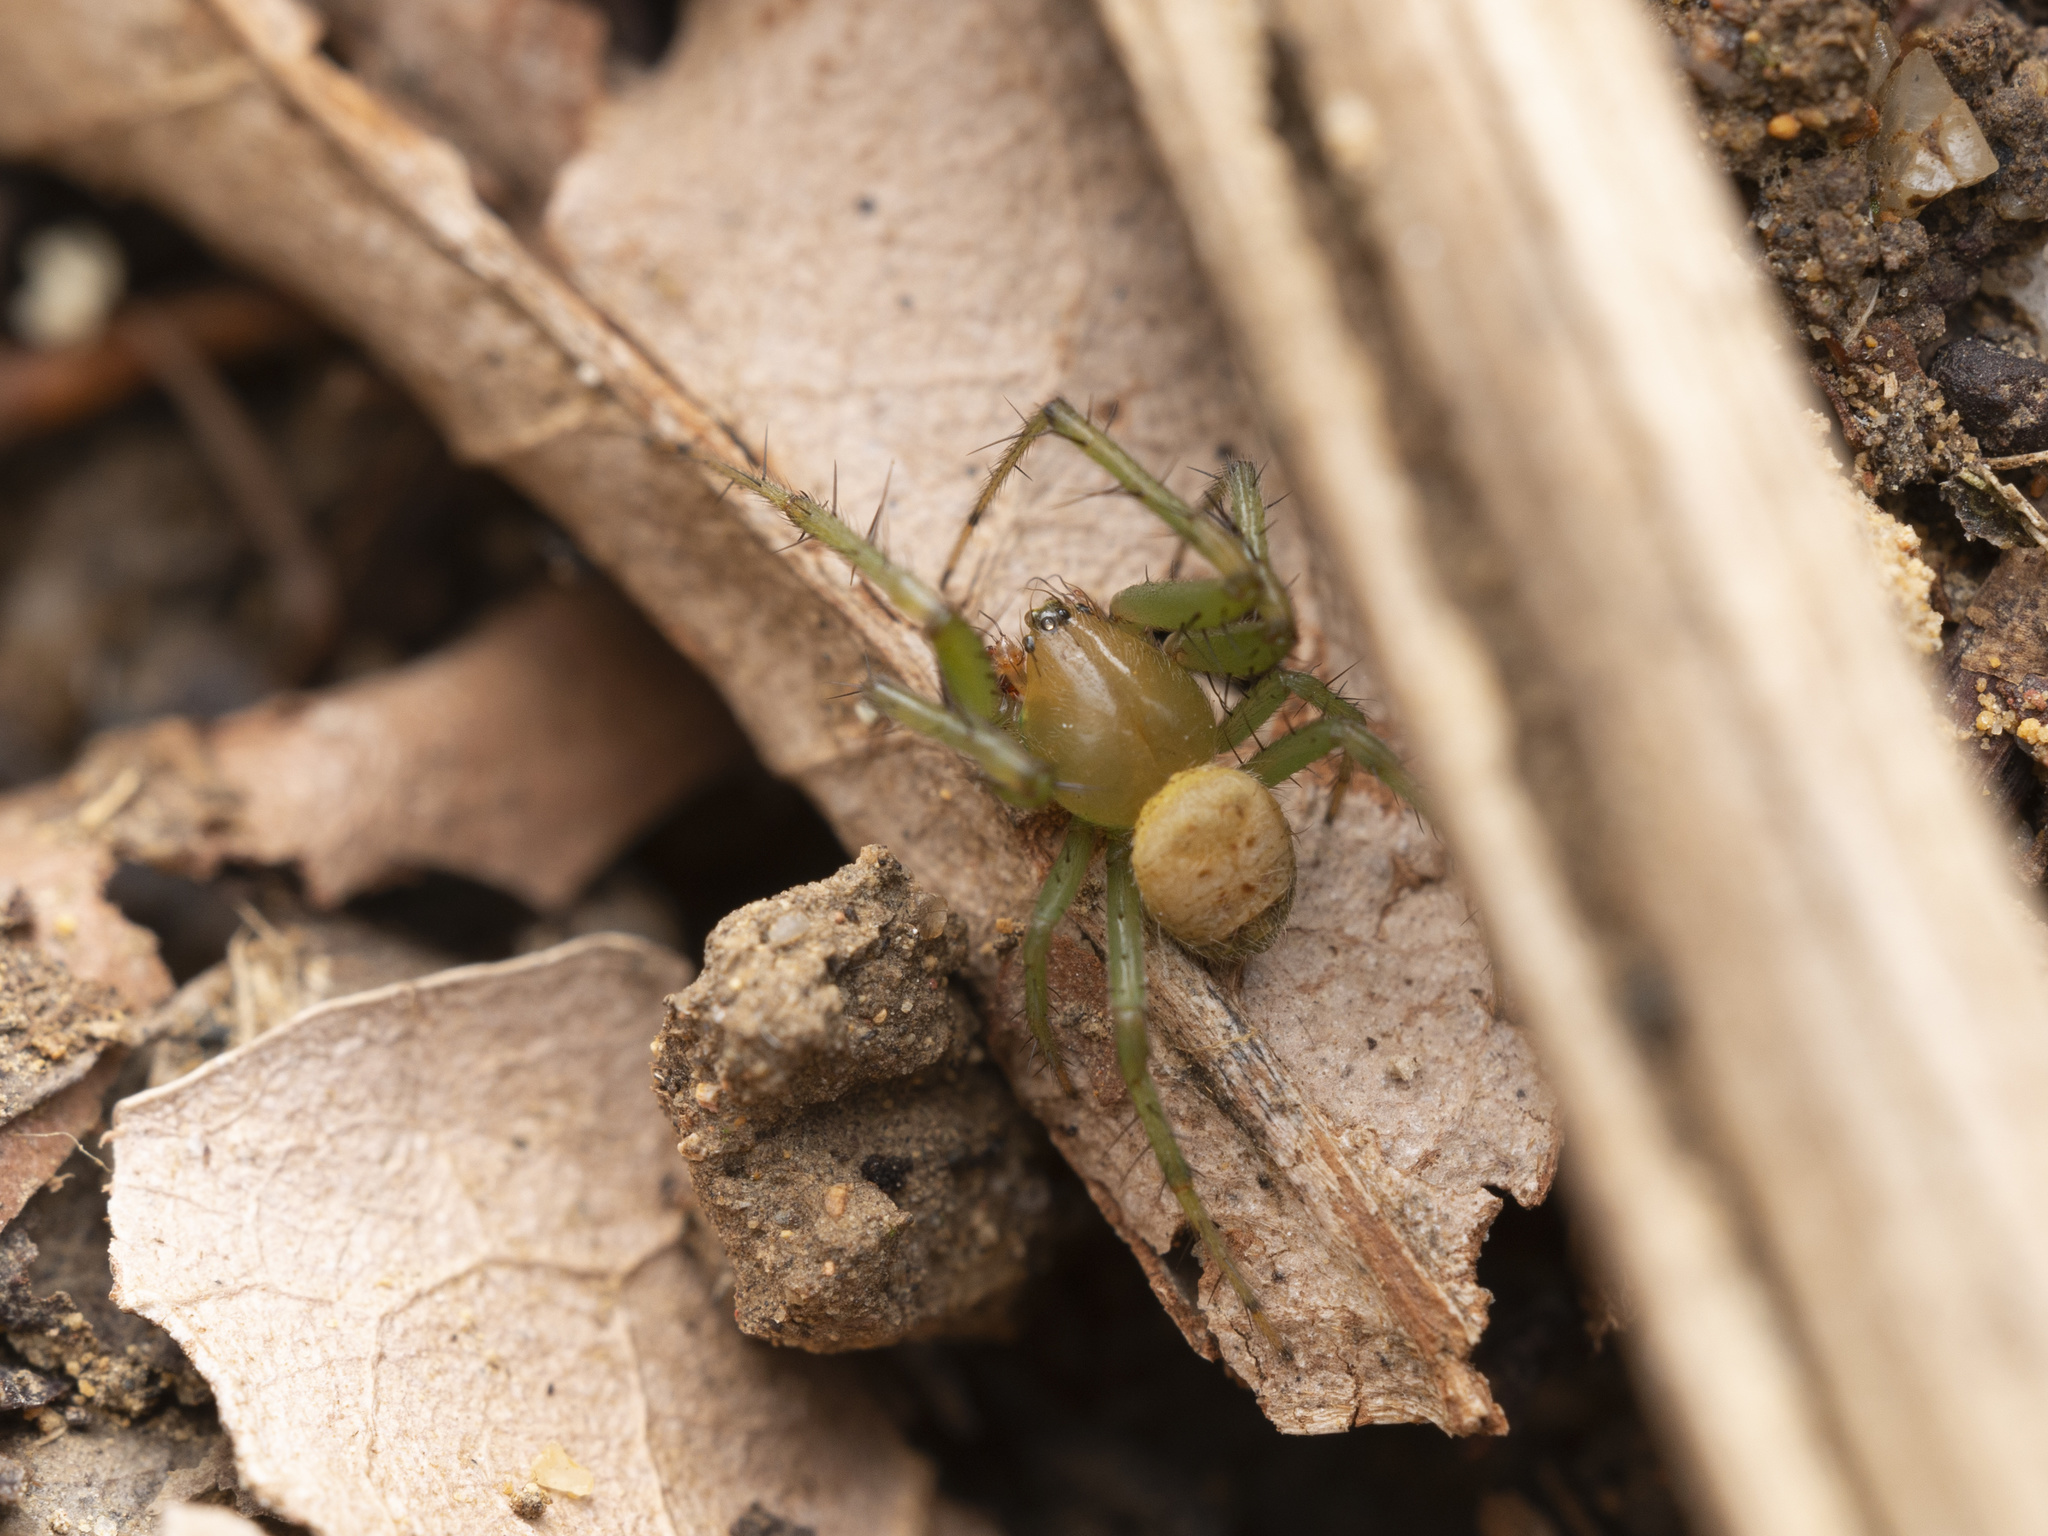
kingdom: Animalia
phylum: Arthropoda
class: Arachnida
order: Araneae
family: Araneidae
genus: Bijoaraneus
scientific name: Bijoaraneus mitificus
